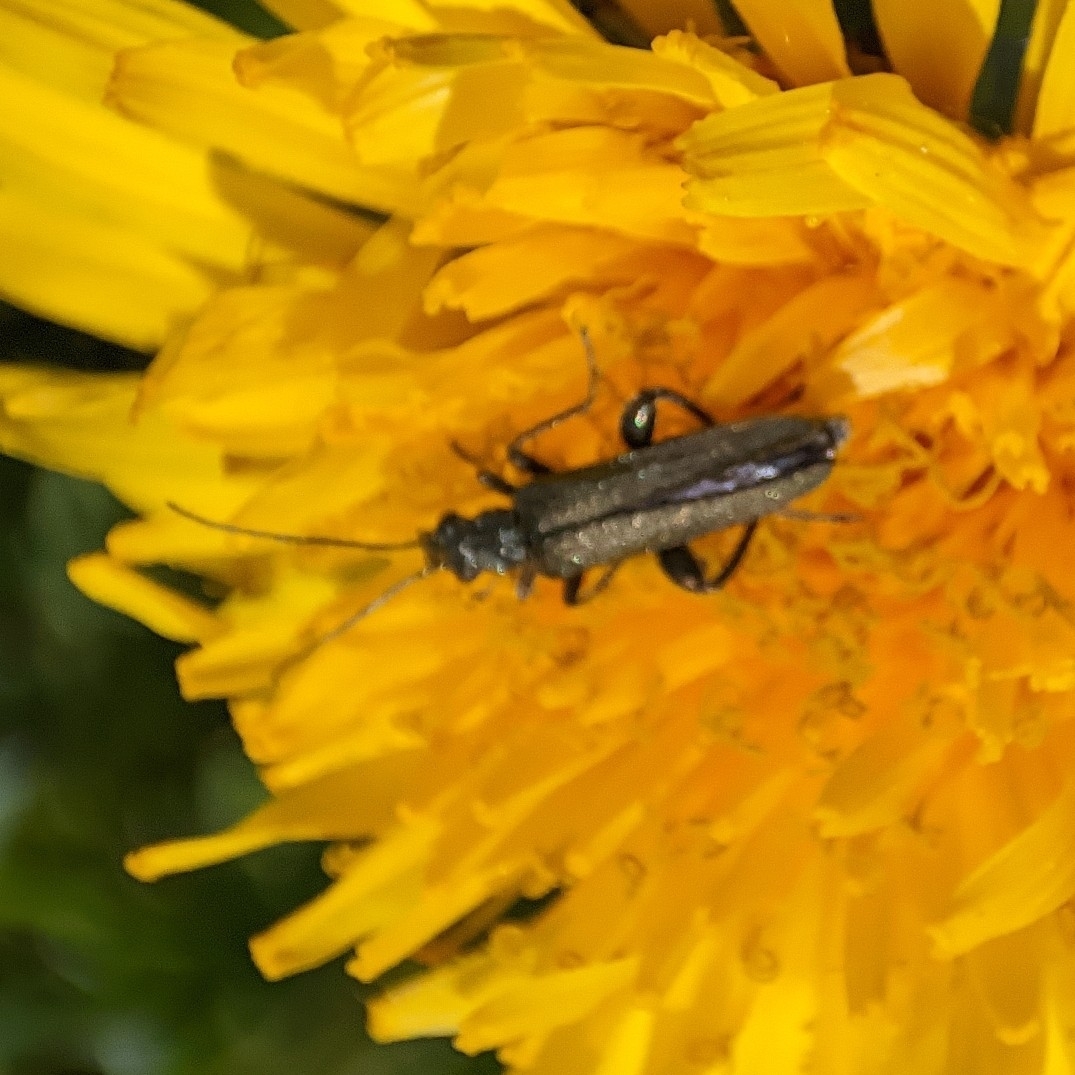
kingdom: Animalia
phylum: Arthropoda
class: Insecta
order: Coleoptera
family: Oedemeridae
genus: Oedemera
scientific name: Oedemera virescens
